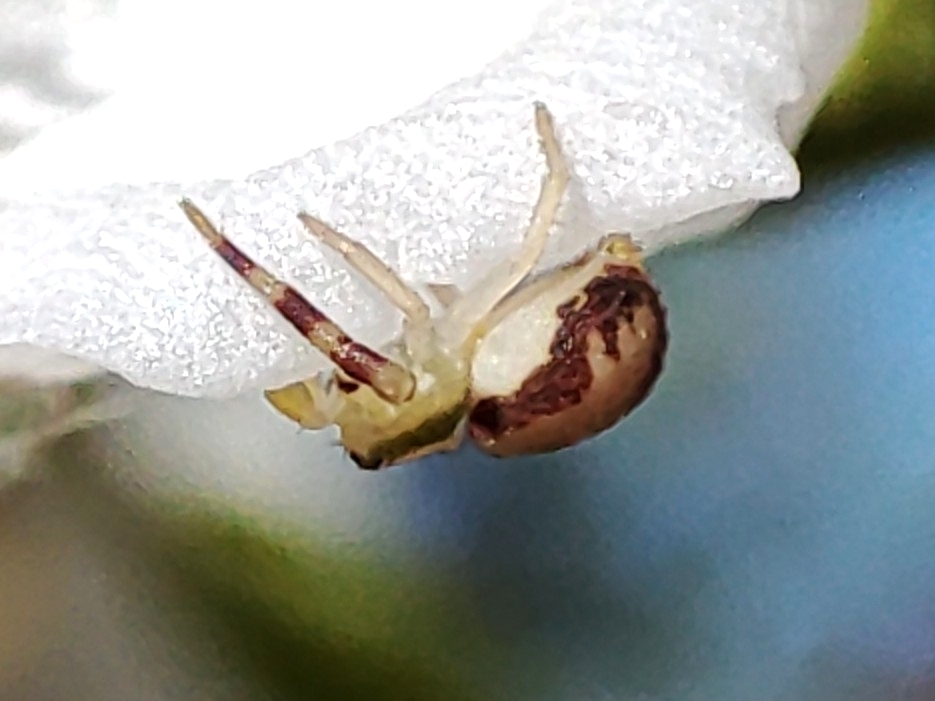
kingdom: Animalia
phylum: Arthropoda
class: Arachnida
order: Araneae
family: Thomisidae
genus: Misumena
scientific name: Misumena vatia
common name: Goldenrod crab spider
